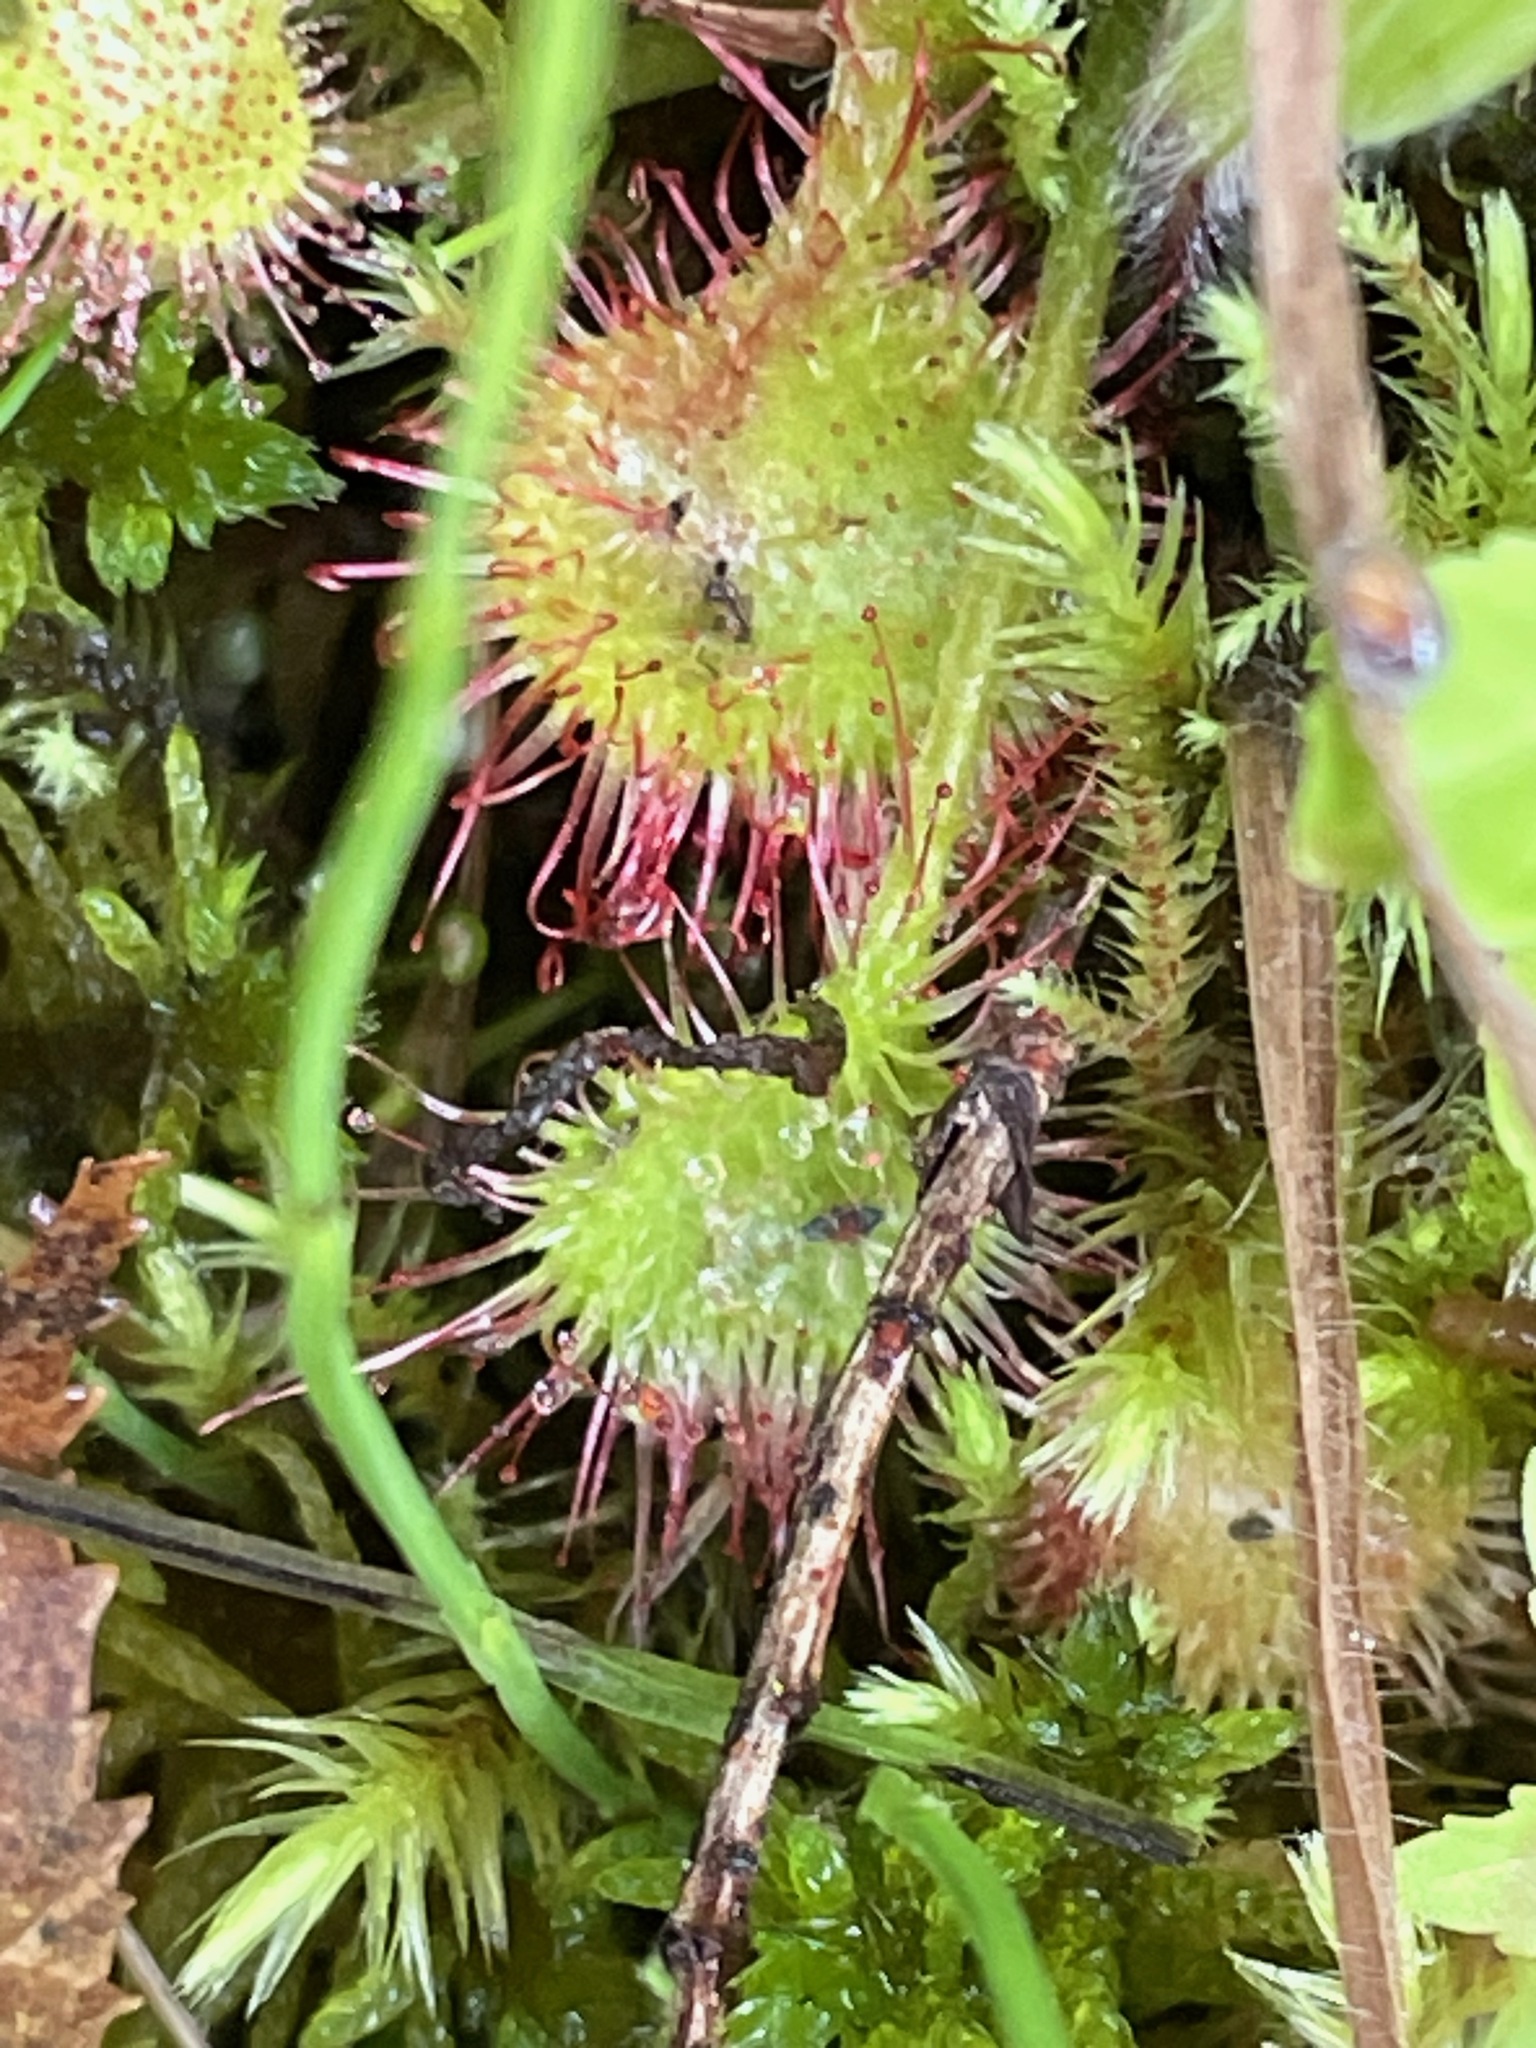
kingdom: Plantae
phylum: Tracheophyta
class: Magnoliopsida
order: Caryophyllales
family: Droseraceae
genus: Drosera
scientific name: Drosera rotundifolia
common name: Round-leaved sundew
